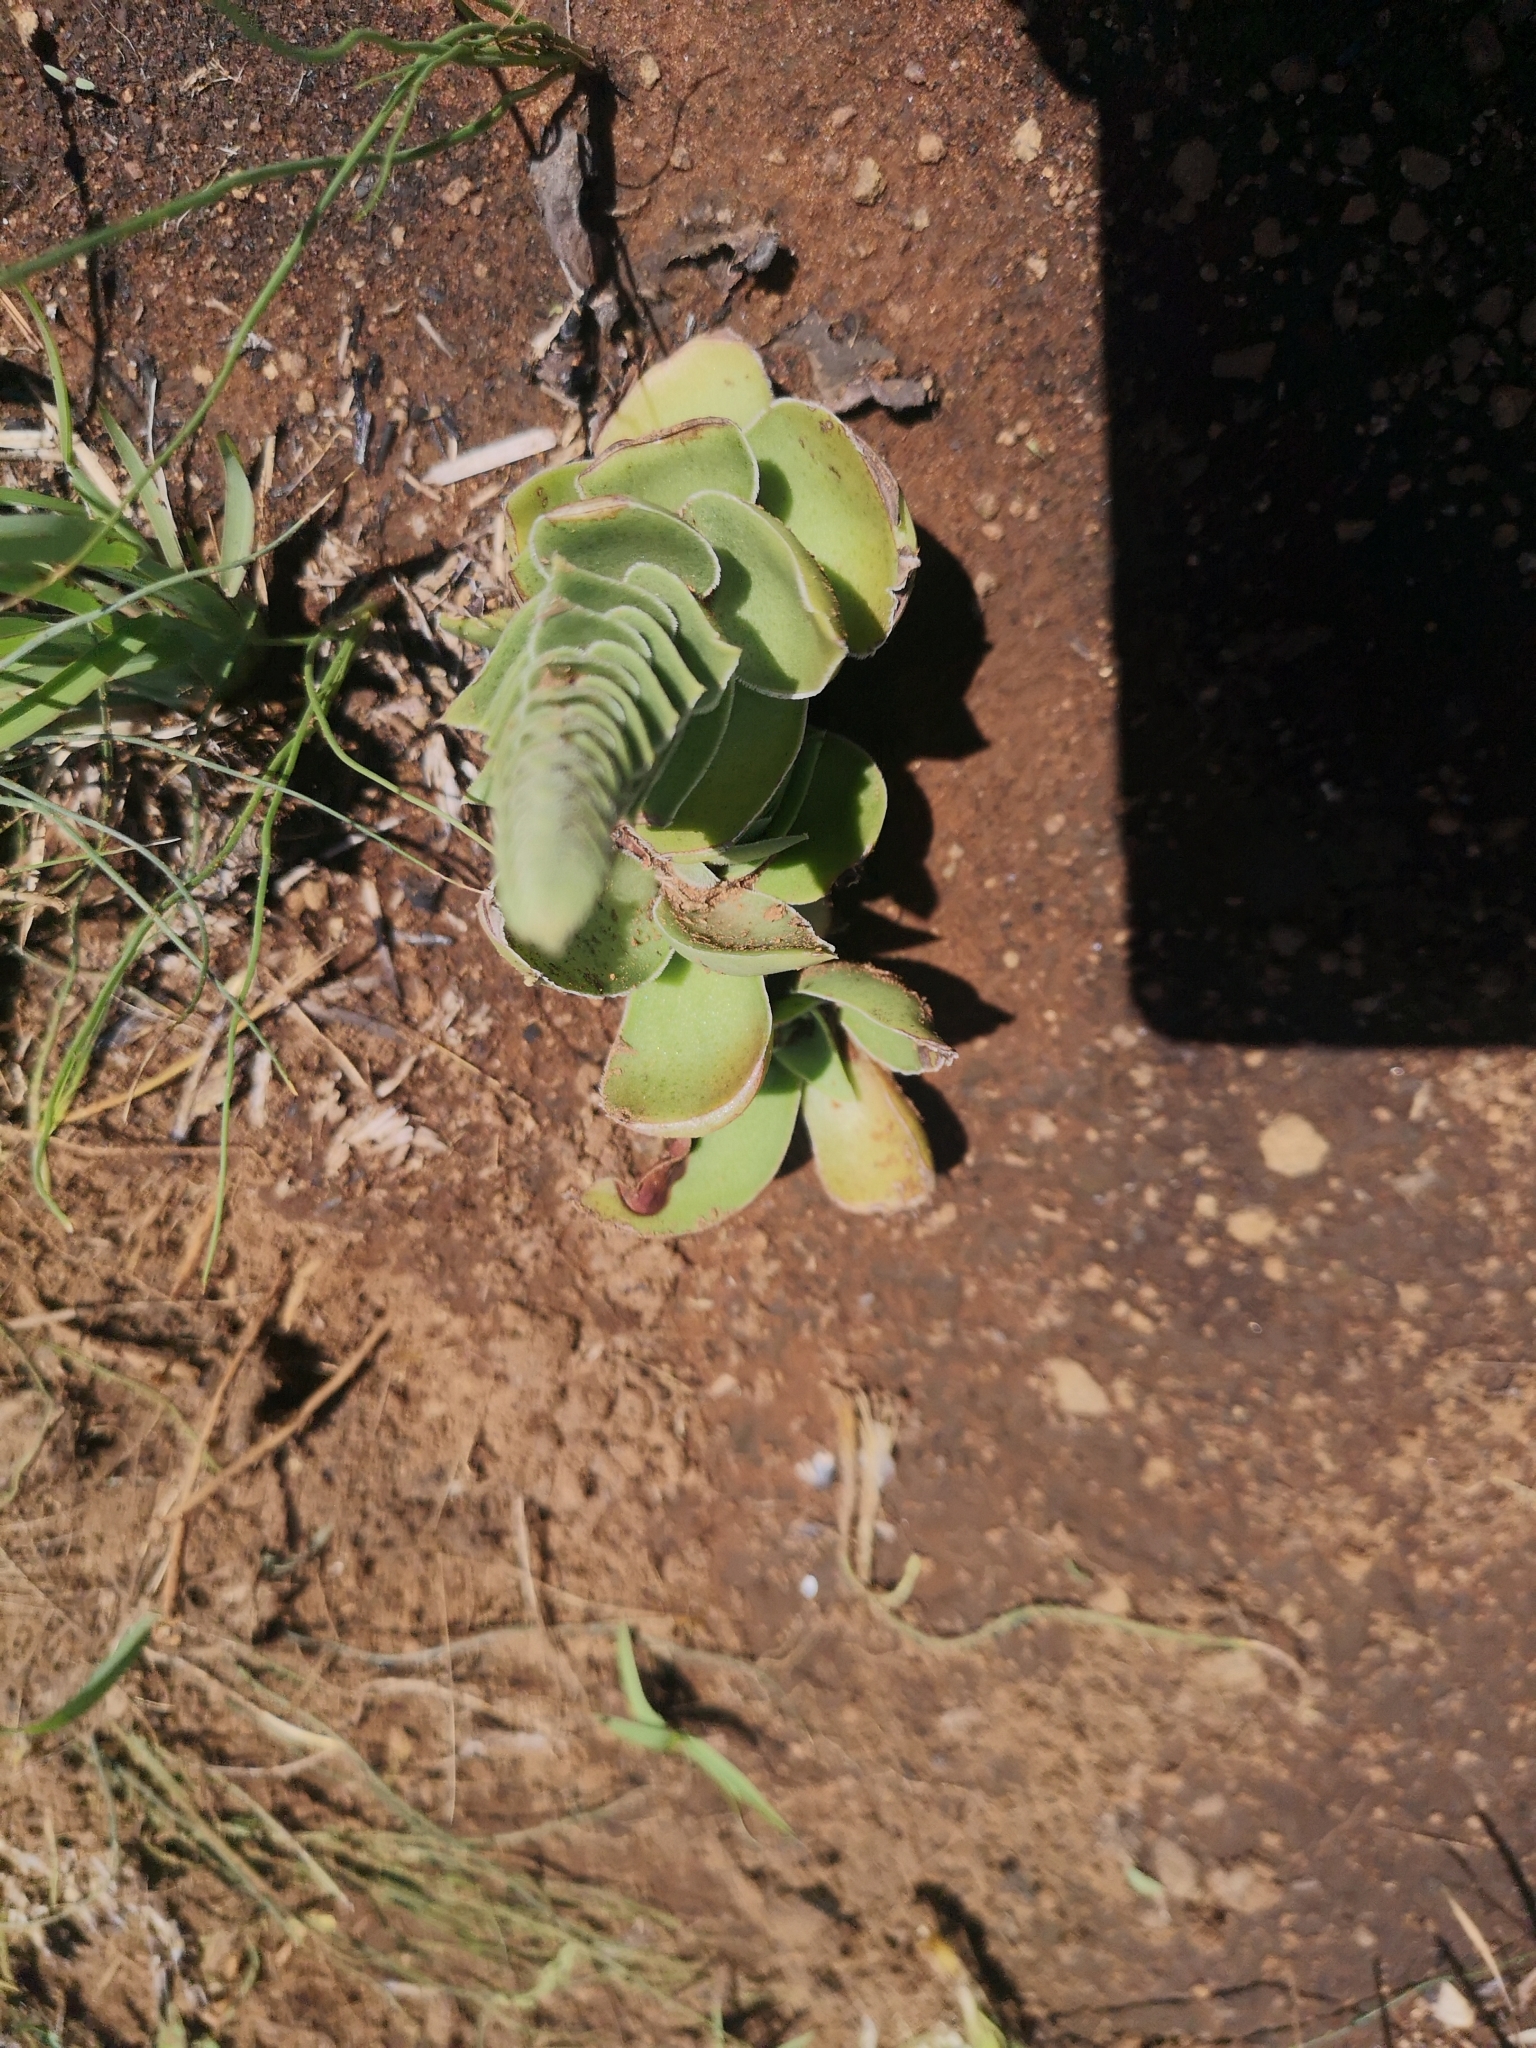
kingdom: Plantae
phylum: Tracheophyta
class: Magnoliopsida
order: Saxifragales
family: Crassulaceae
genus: Crassula
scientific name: Crassula capitella
